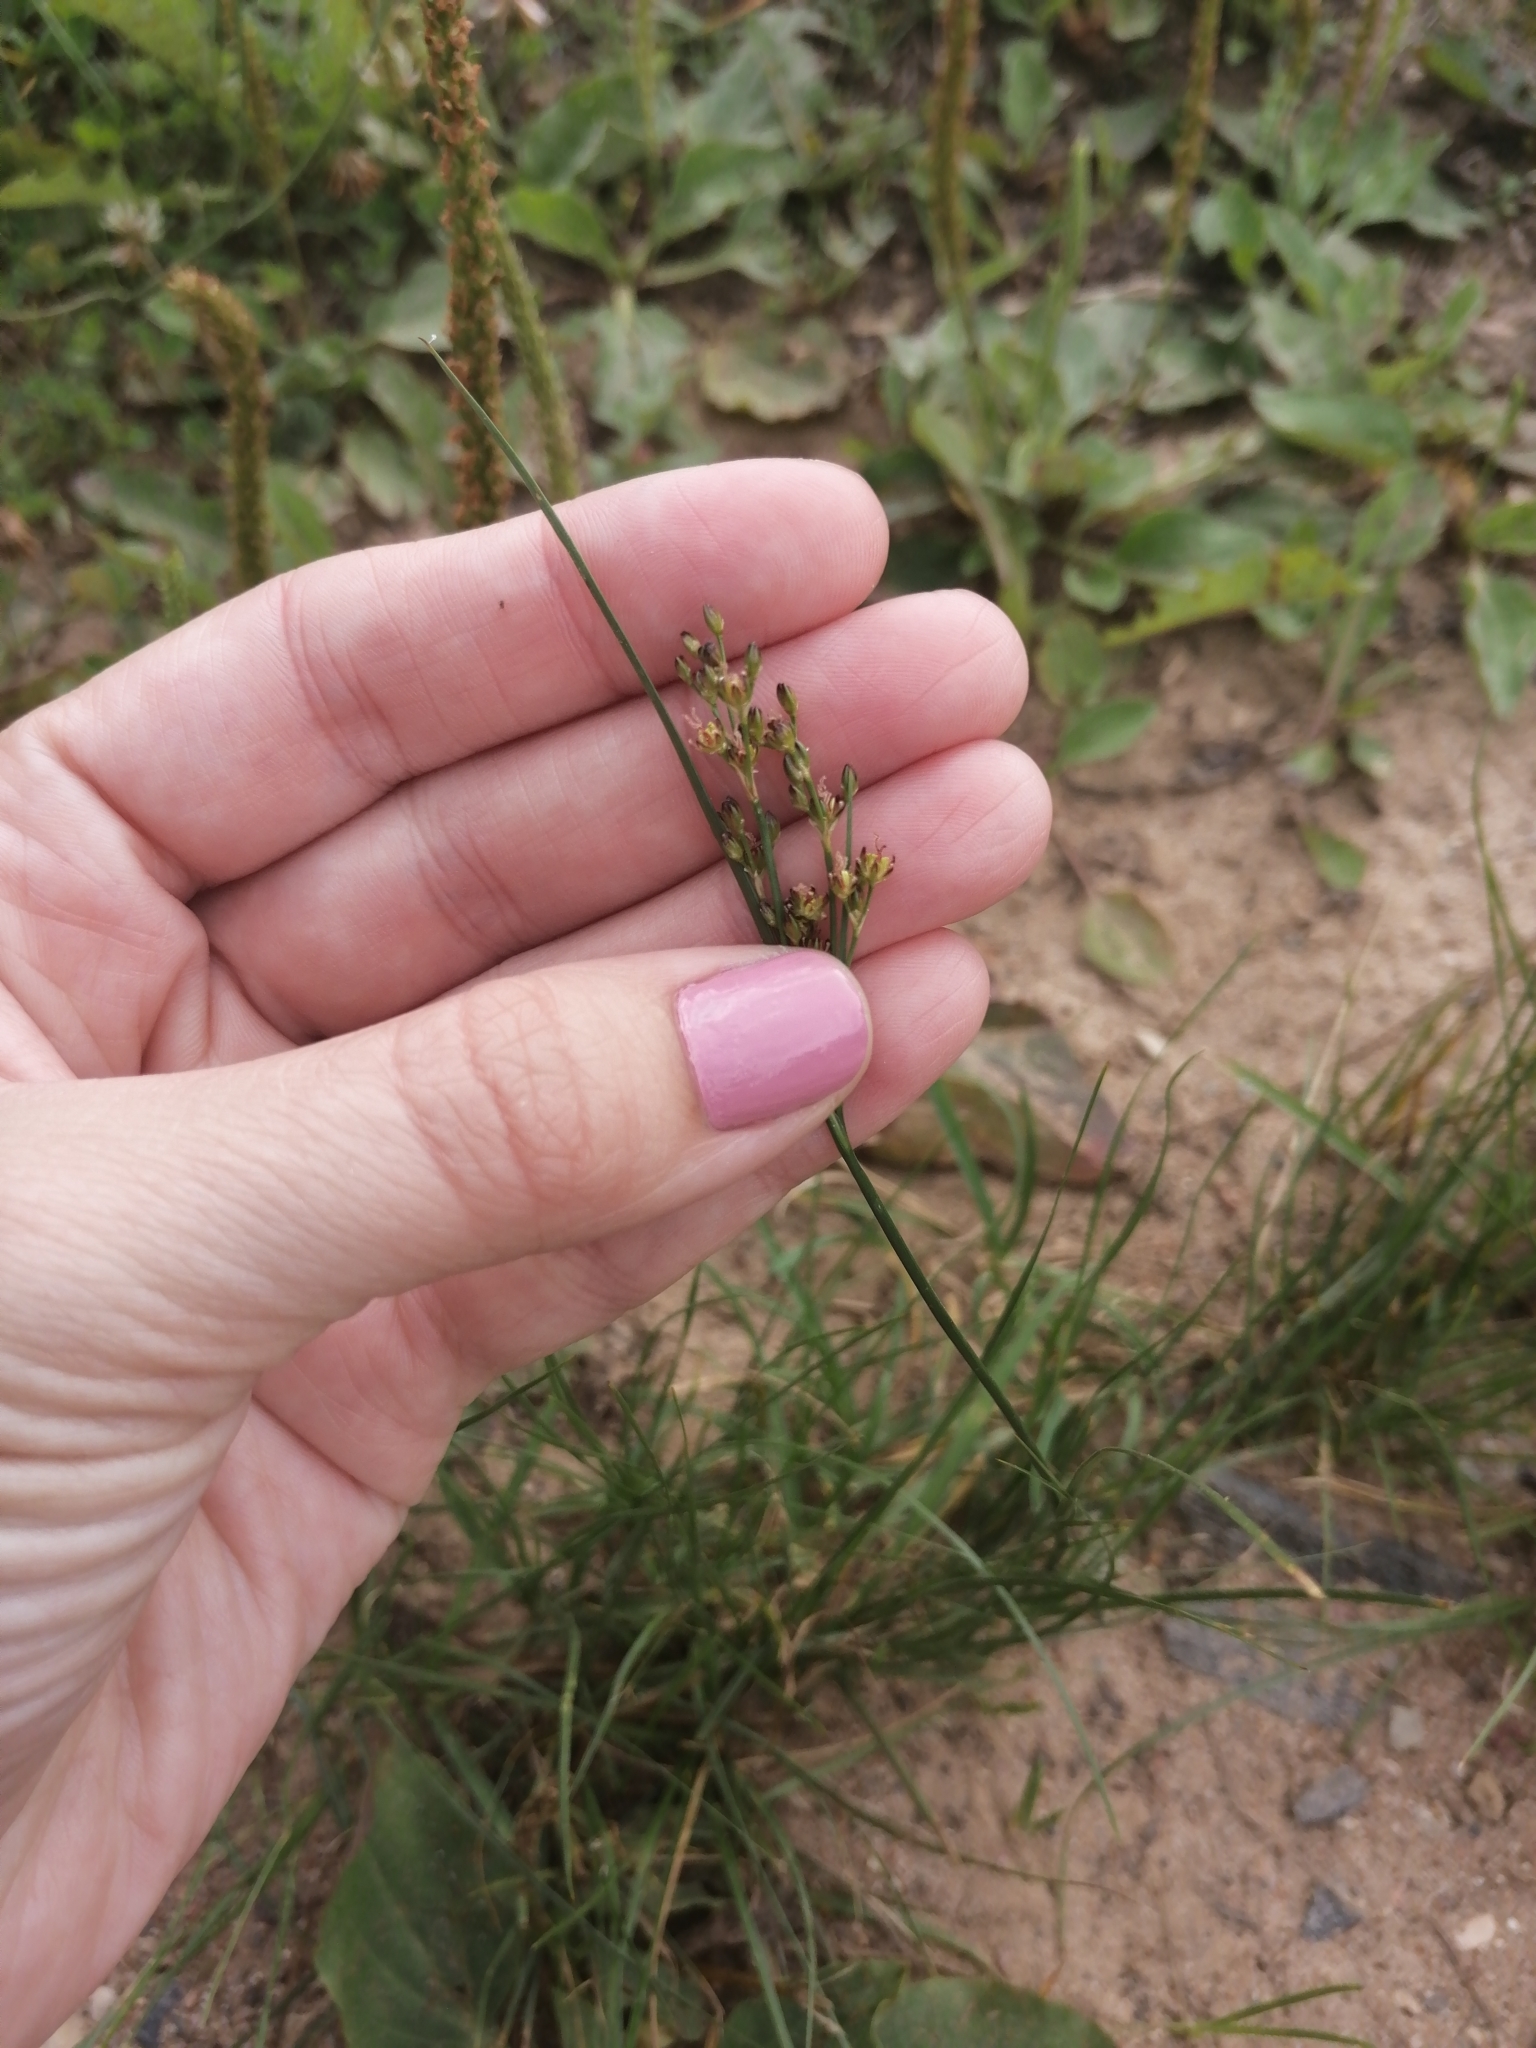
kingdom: Plantae
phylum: Tracheophyta
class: Liliopsida
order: Poales
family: Juncaceae
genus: Juncus
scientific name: Juncus compressus
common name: Round-fruited rush
